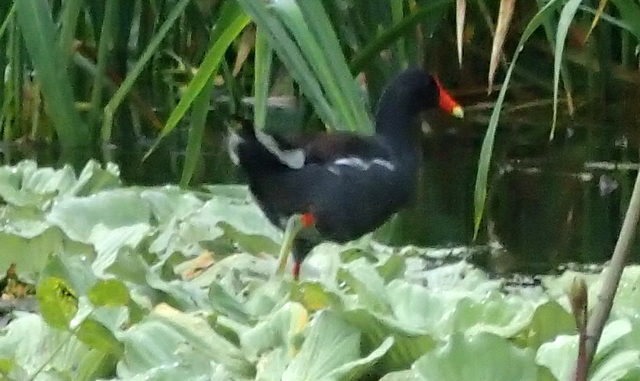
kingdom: Animalia
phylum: Chordata
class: Aves
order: Gruiformes
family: Rallidae
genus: Gallinula
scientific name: Gallinula chloropus
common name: Common moorhen
